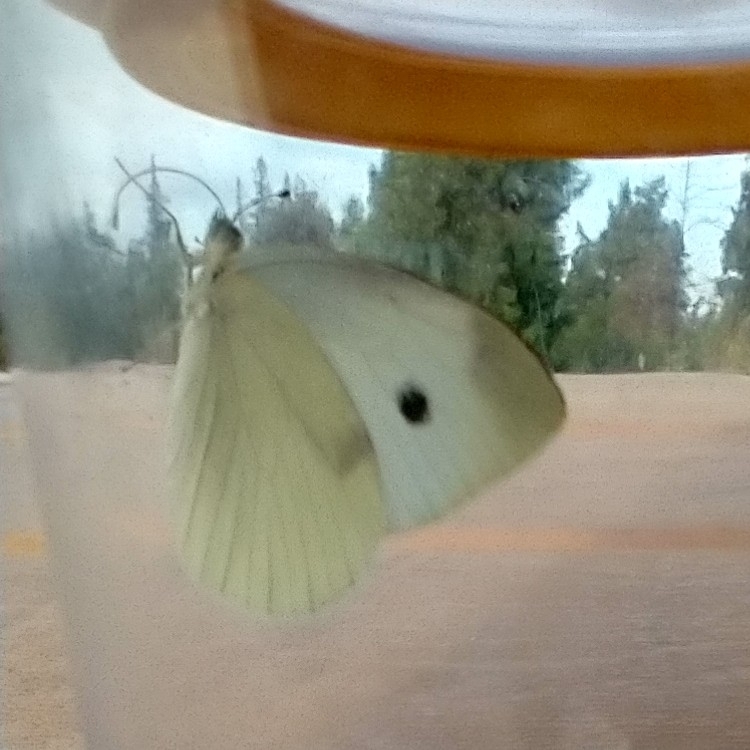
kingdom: Animalia
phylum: Arthropoda
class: Insecta
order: Lepidoptera
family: Pieridae
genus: Pieris
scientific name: Pieris rapae
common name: Small white
